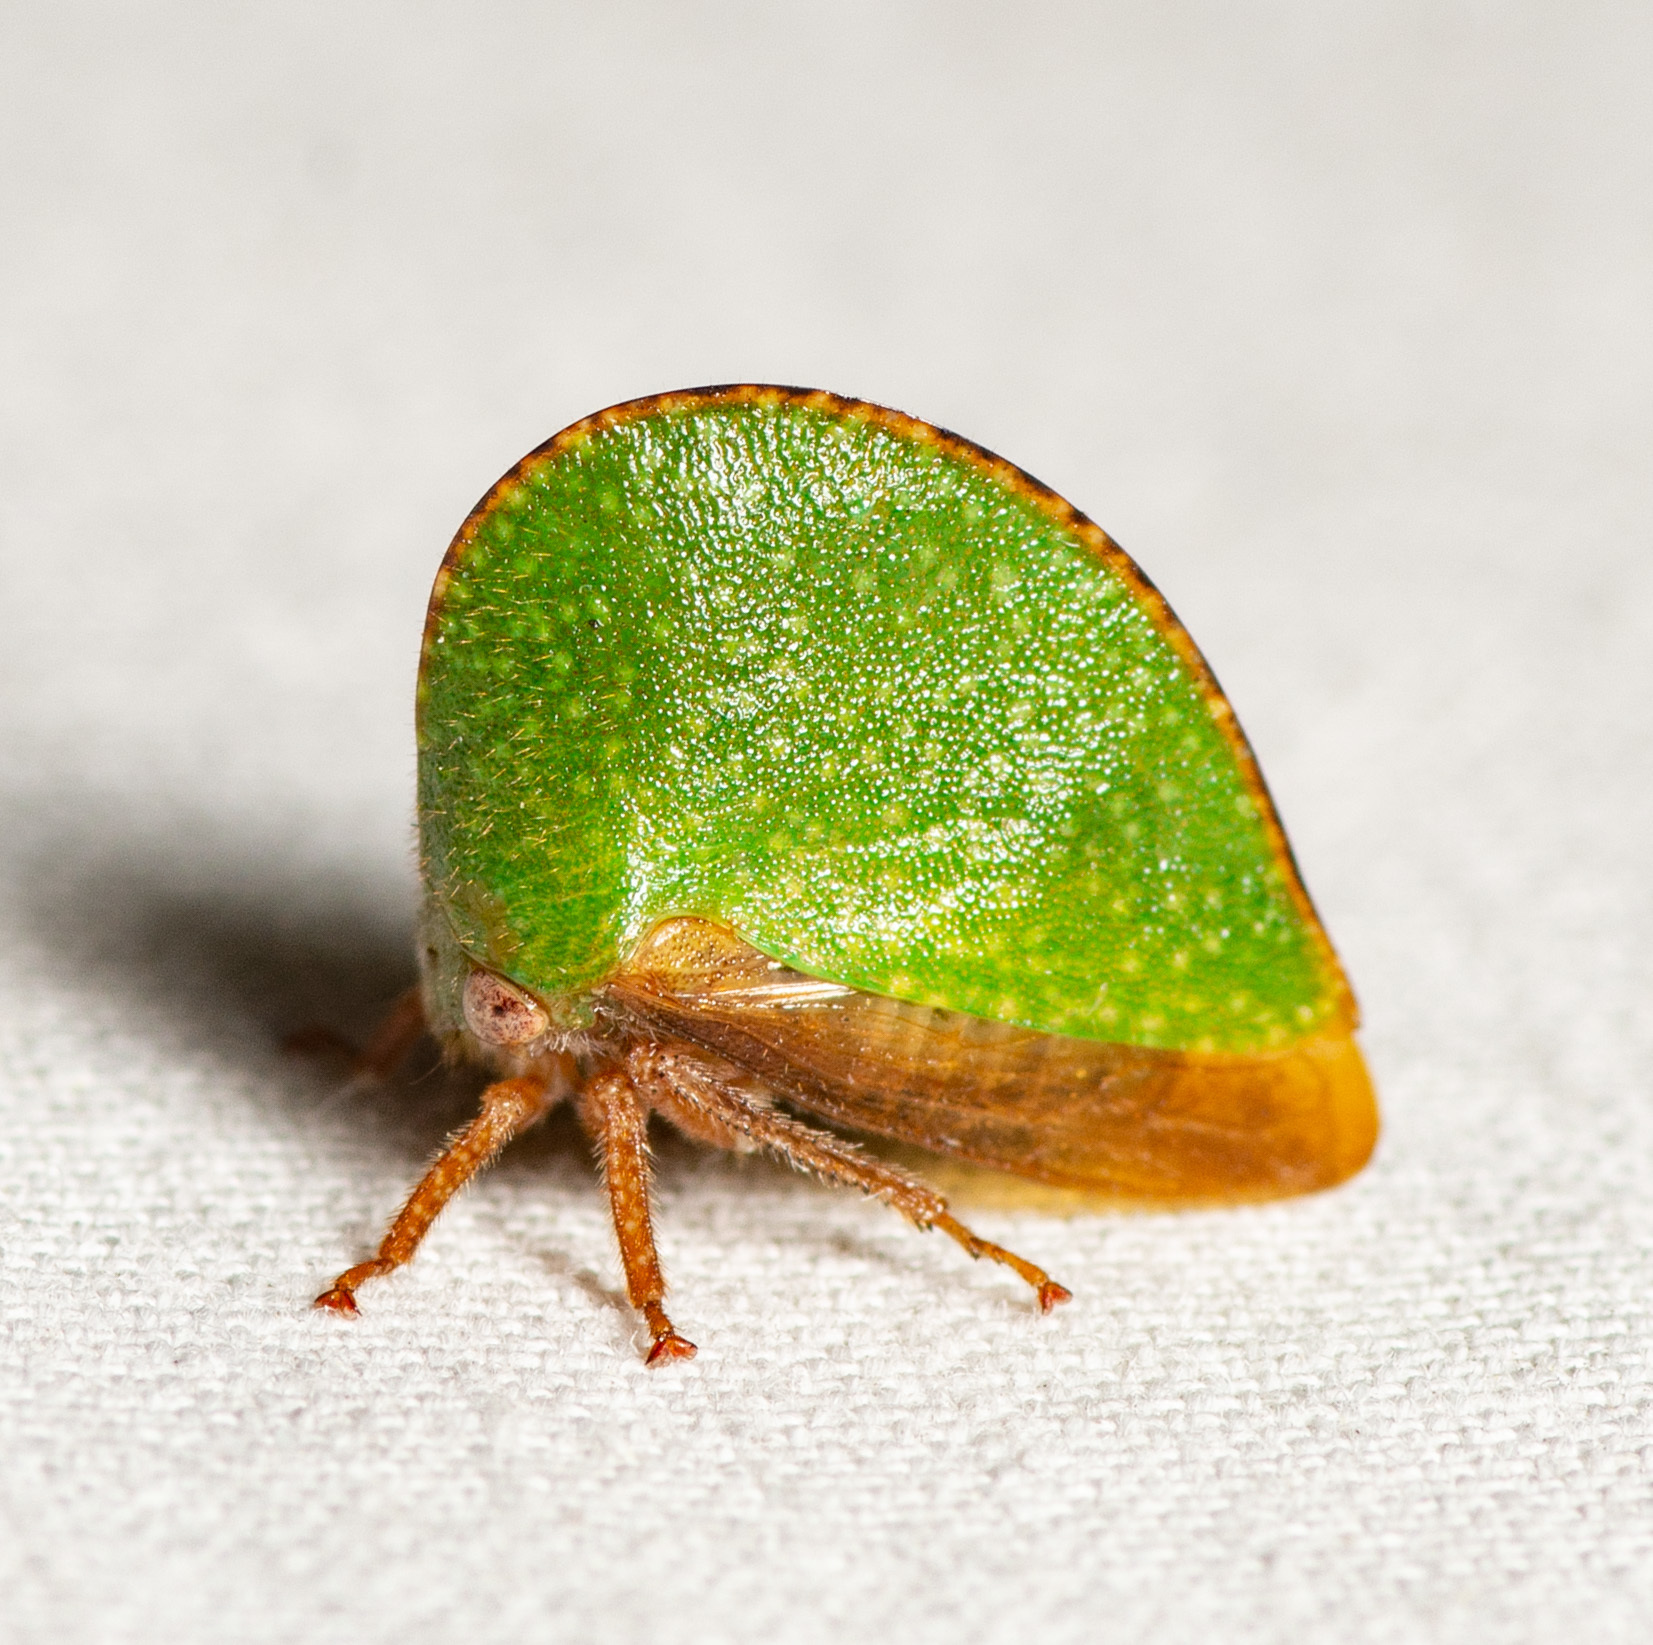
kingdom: Animalia
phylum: Arthropoda
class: Insecta
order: Hemiptera
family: Membracidae
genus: Archasia
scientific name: Archasia auriculata
